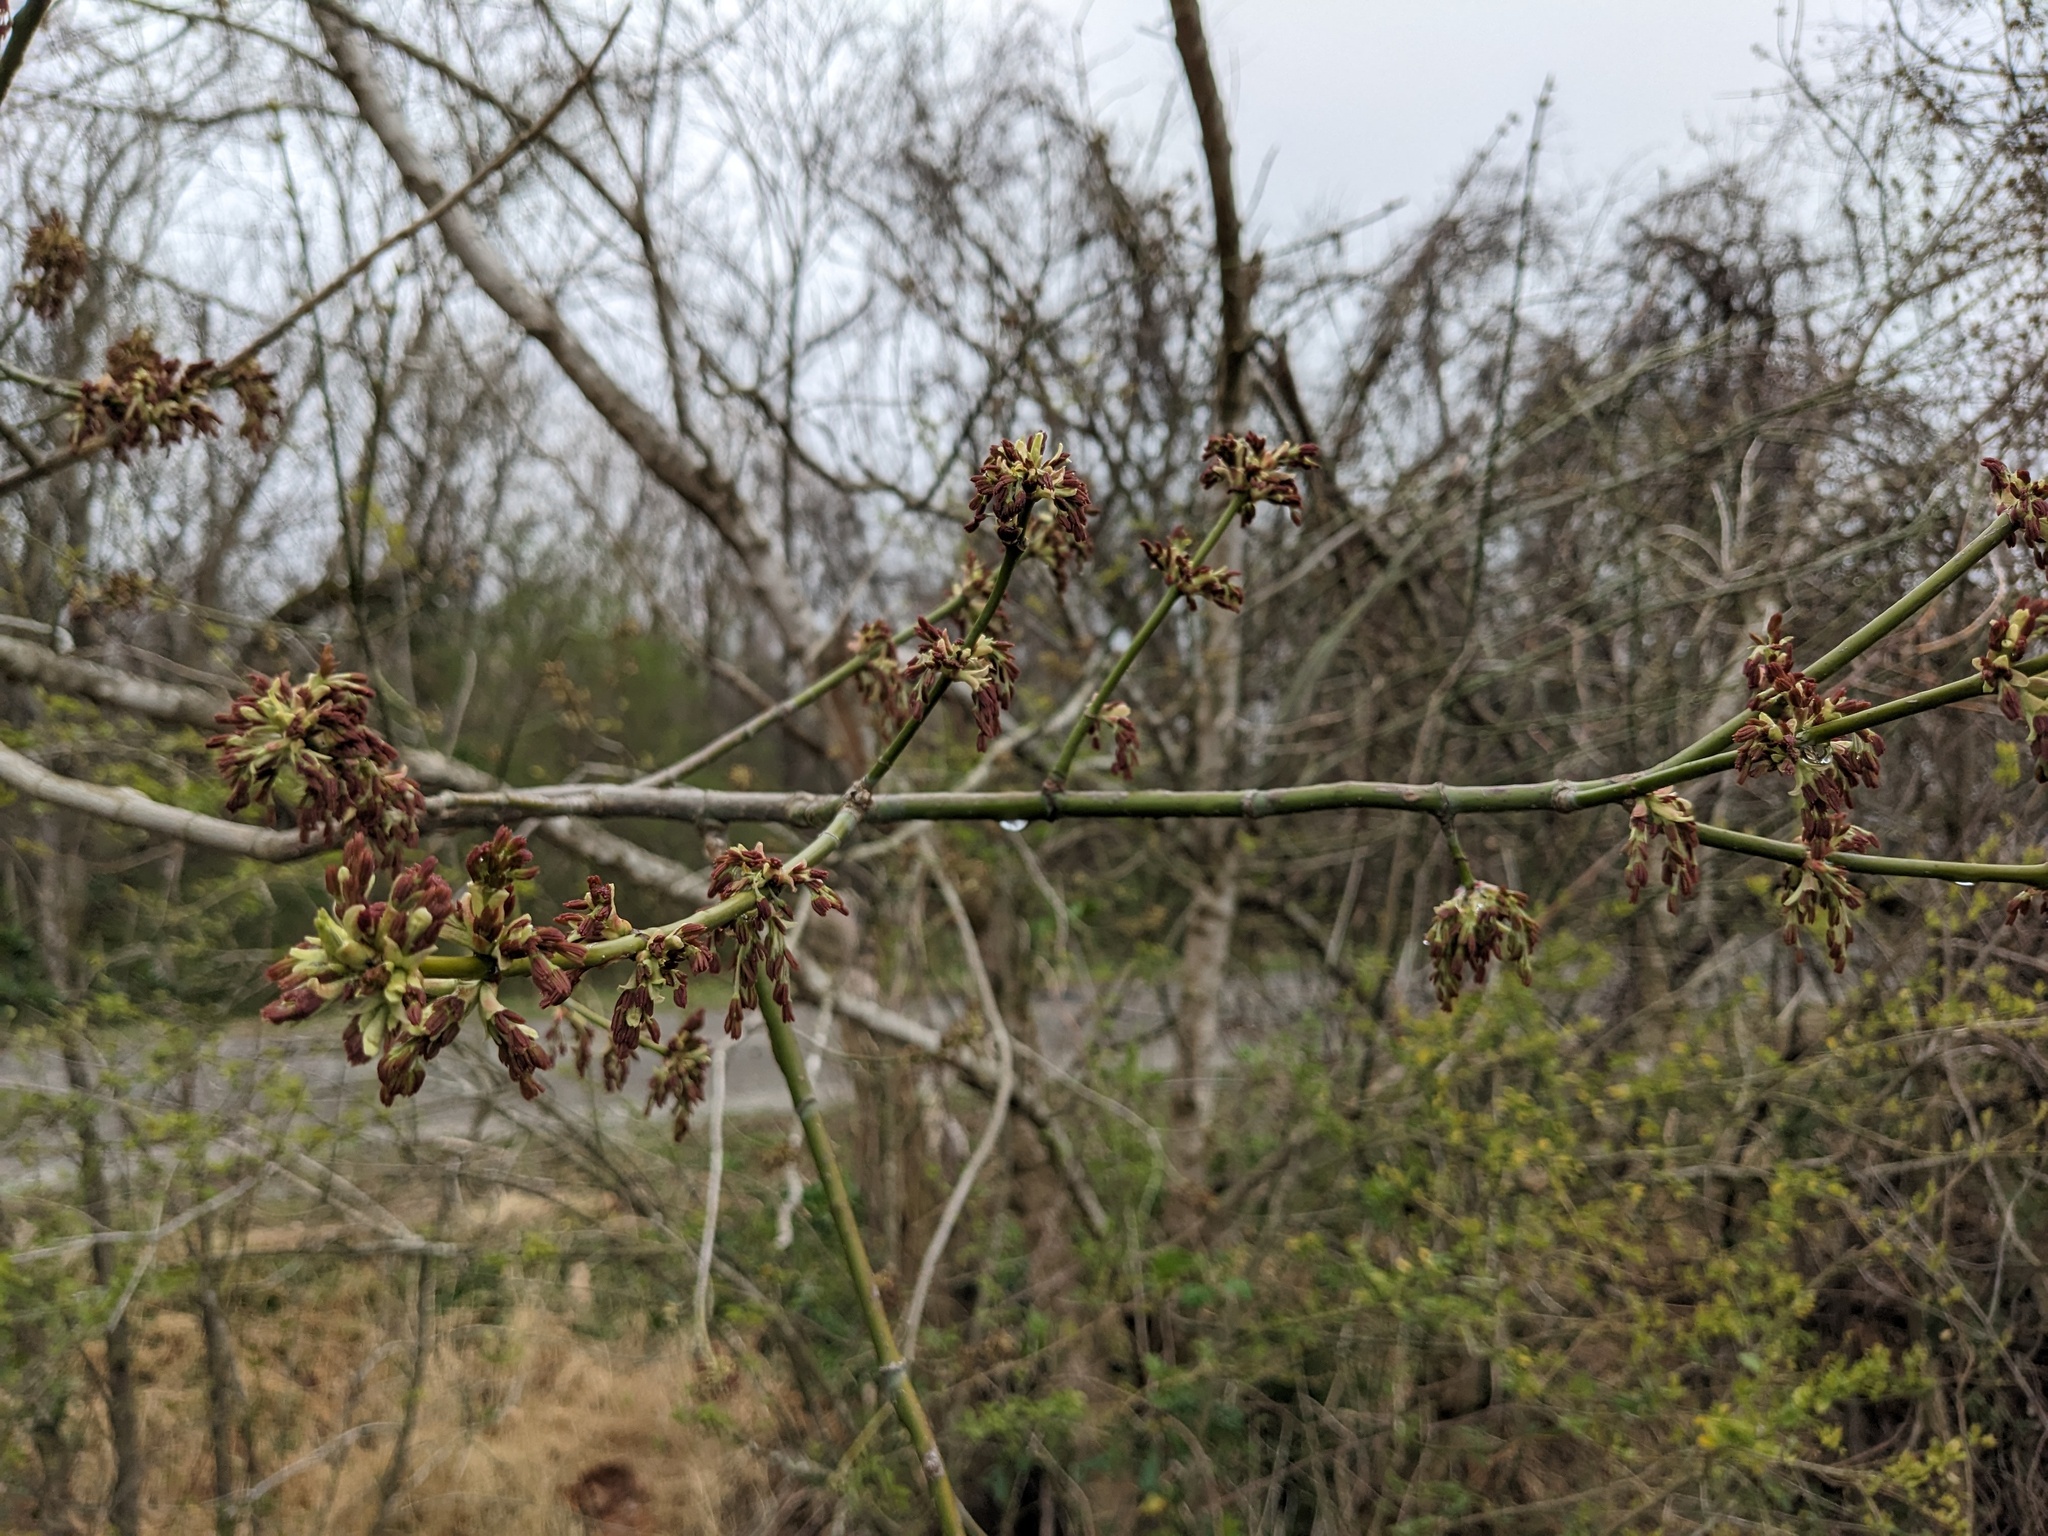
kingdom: Plantae
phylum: Tracheophyta
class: Magnoliopsida
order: Sapindales
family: Sapindaceae
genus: Acer
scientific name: Acer negundo
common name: Ashleaf maple
